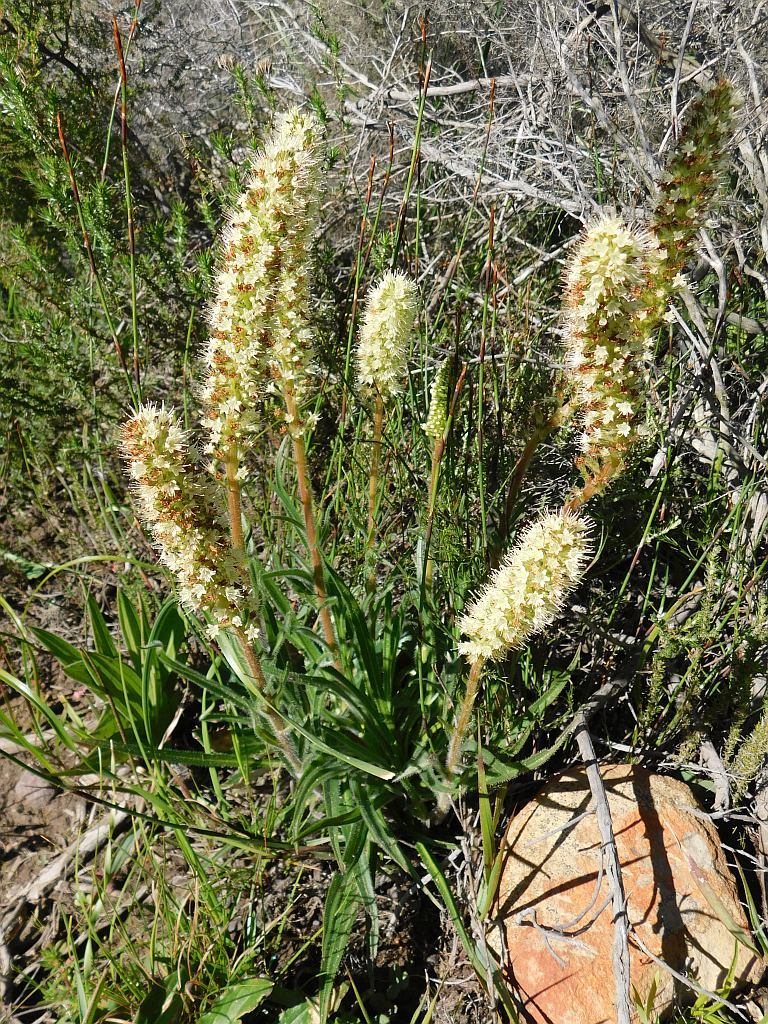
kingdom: Plantae
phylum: Tracheophyta
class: Magnoliopsida
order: Boraginales
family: Boraginaceae
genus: Lobostemon
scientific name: Lobostemon splendens
